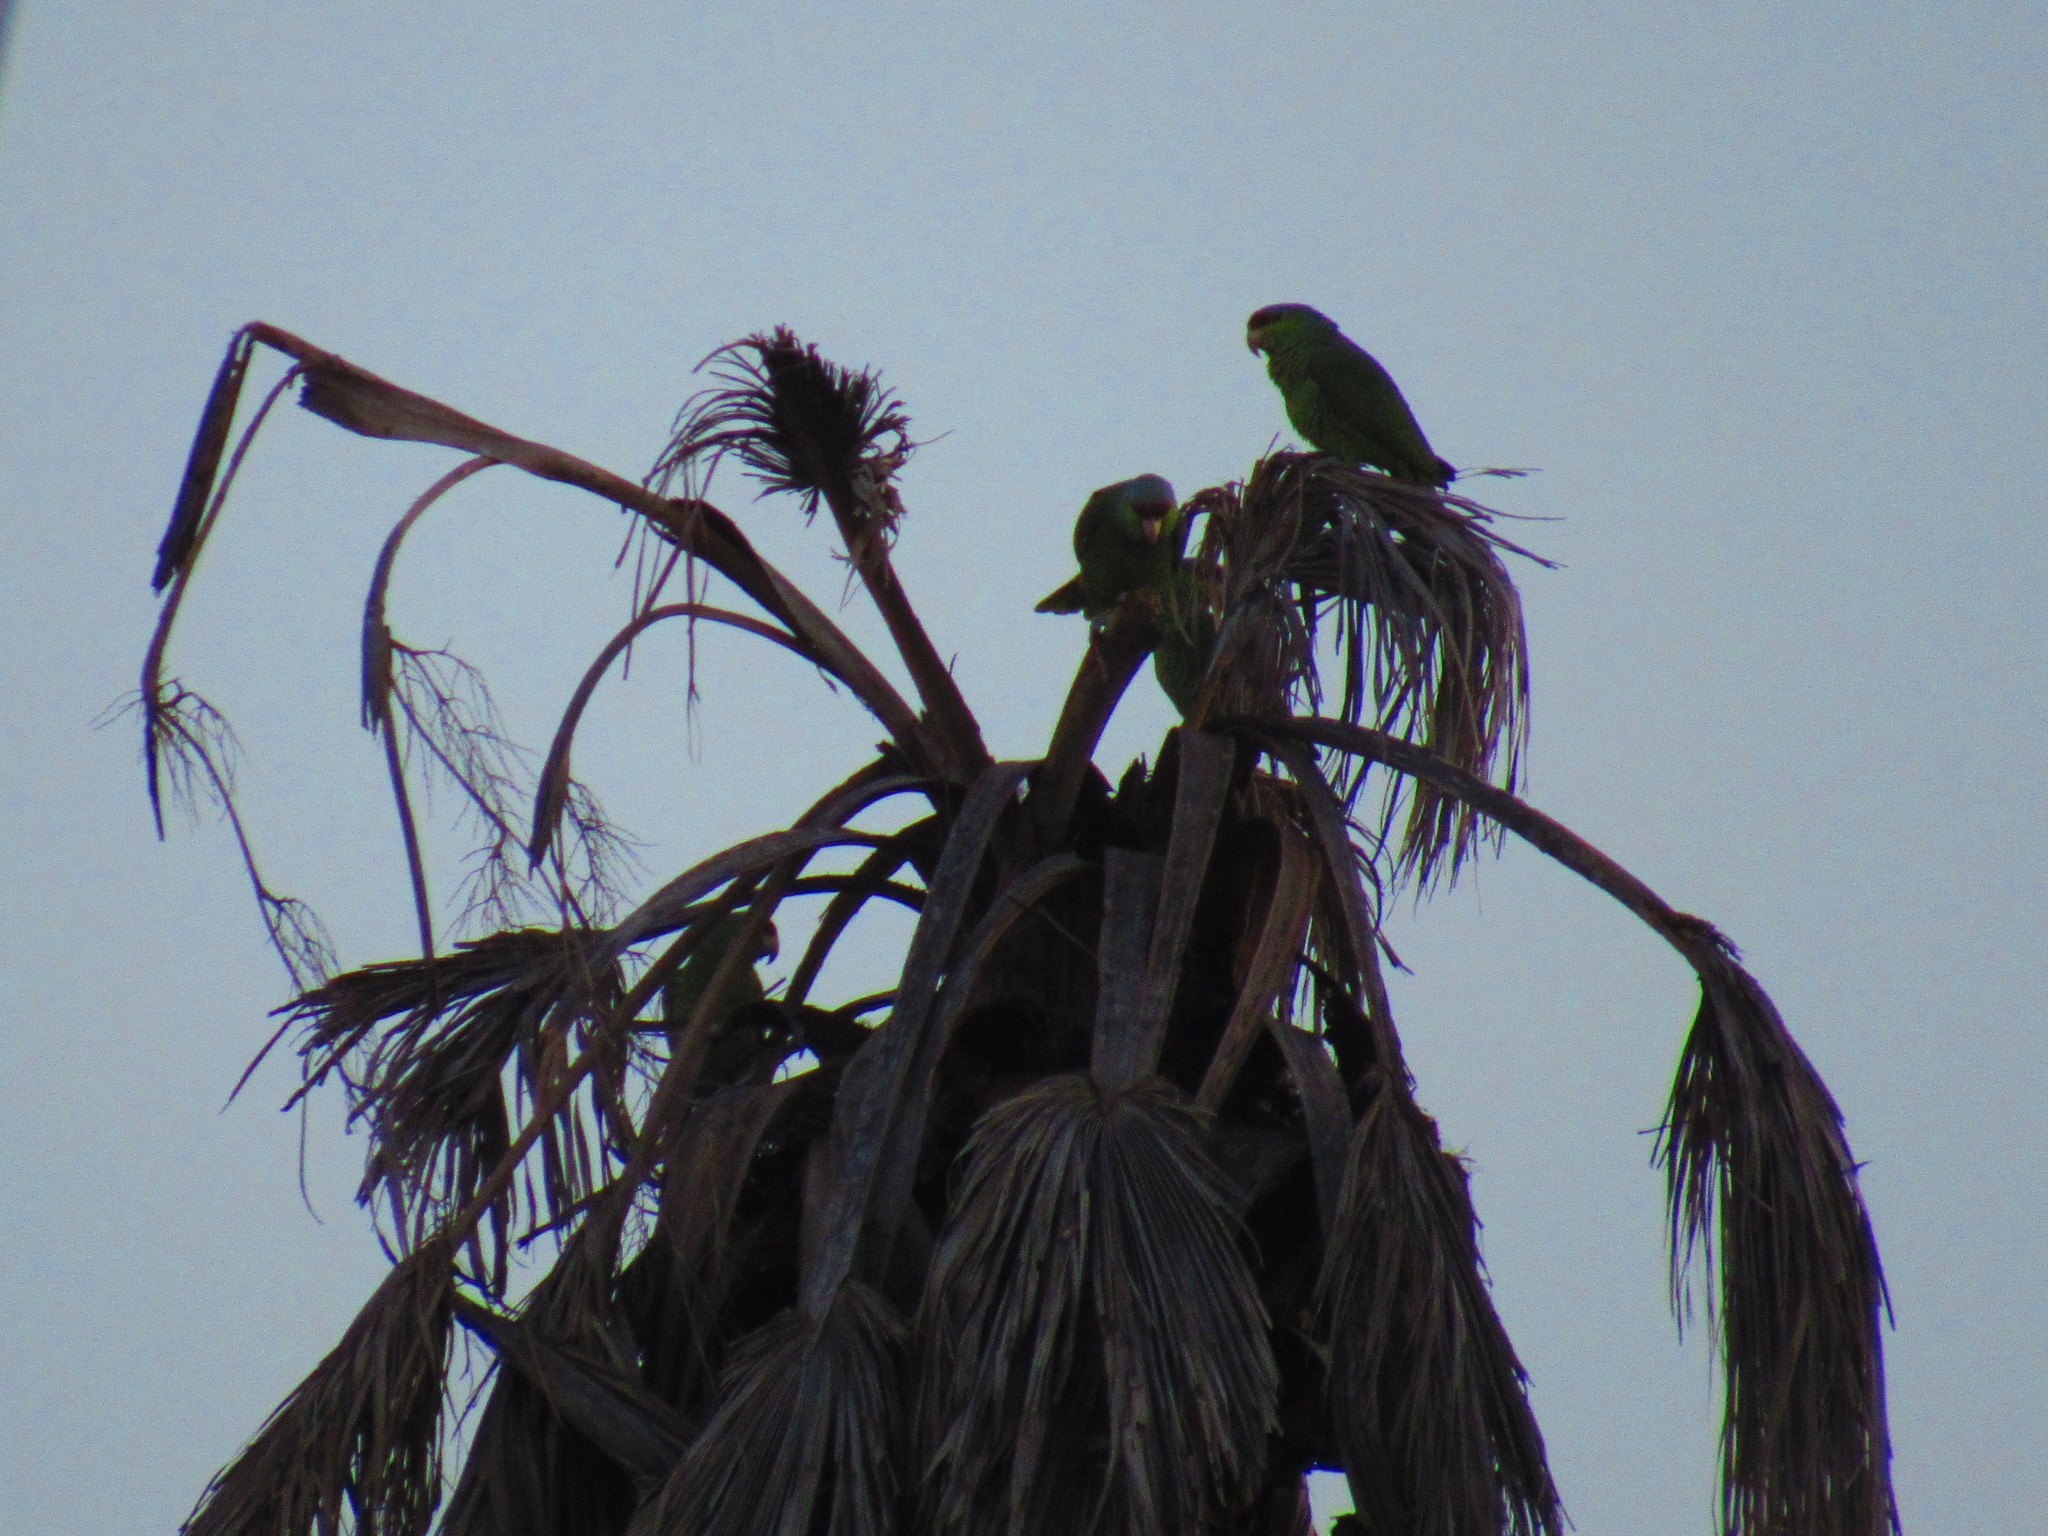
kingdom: Animalia
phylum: Chordata
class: Aves
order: Psittaciformes
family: Psittacidae
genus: Amazona
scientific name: Amazona finschi
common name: Lilac-crowned amazon
